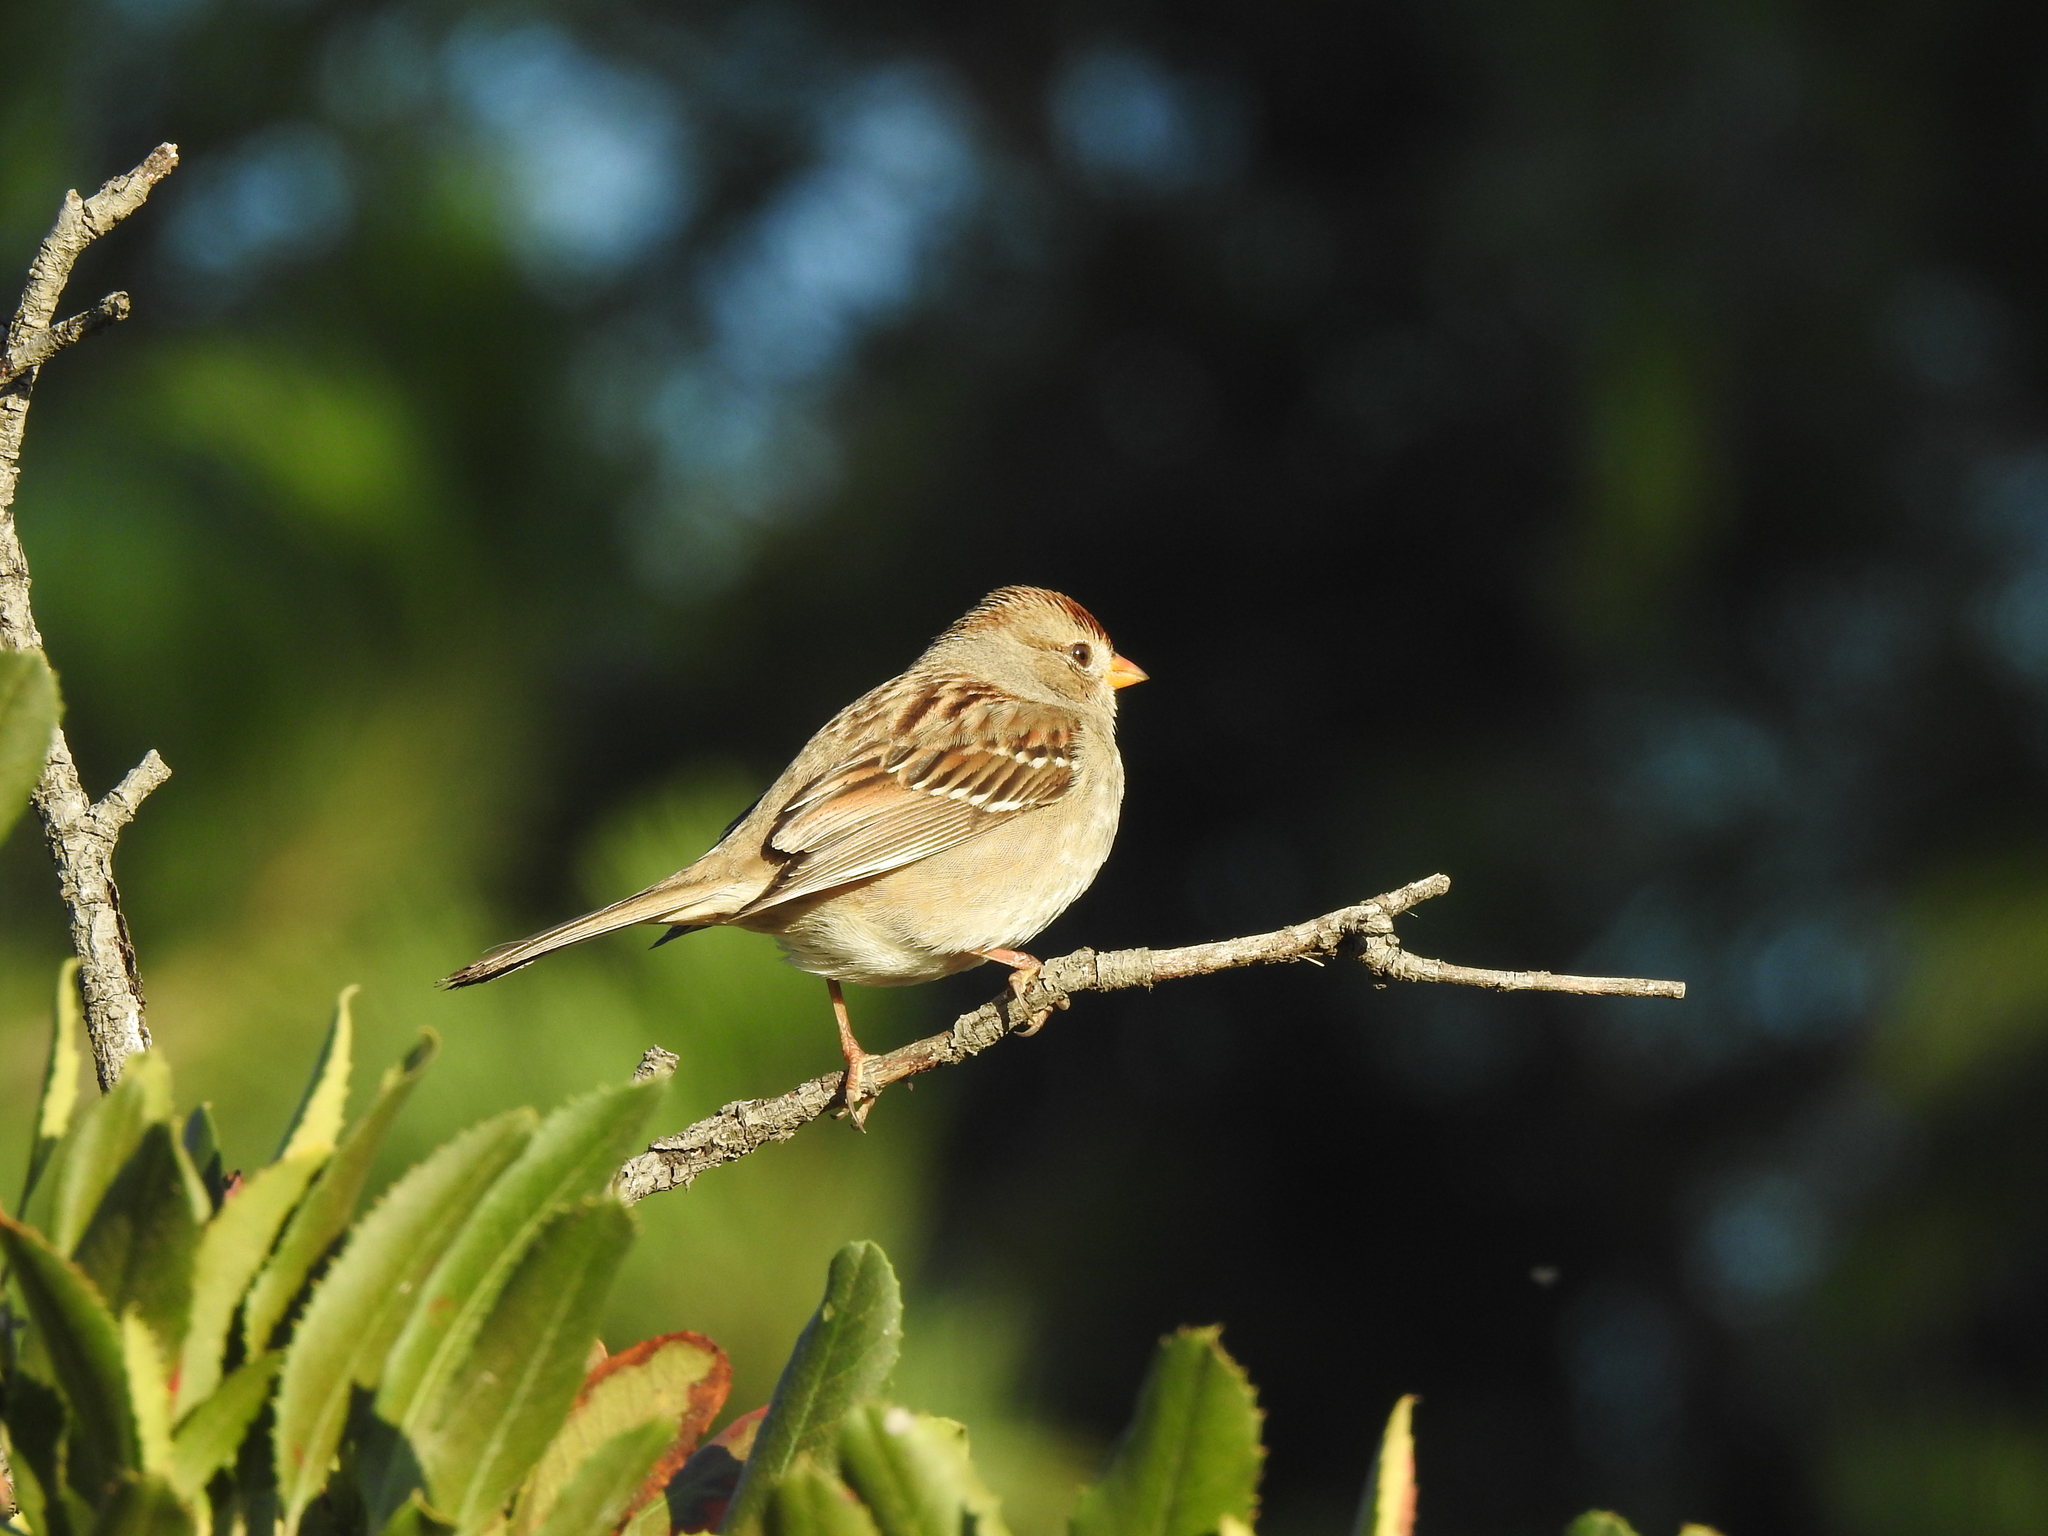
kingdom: Animalia
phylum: Chordata
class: Aves
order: Passeriformes
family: Passerellidae
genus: Zonotrichia
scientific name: Zonotrichia leucophrys
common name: White-crowned sparrow
